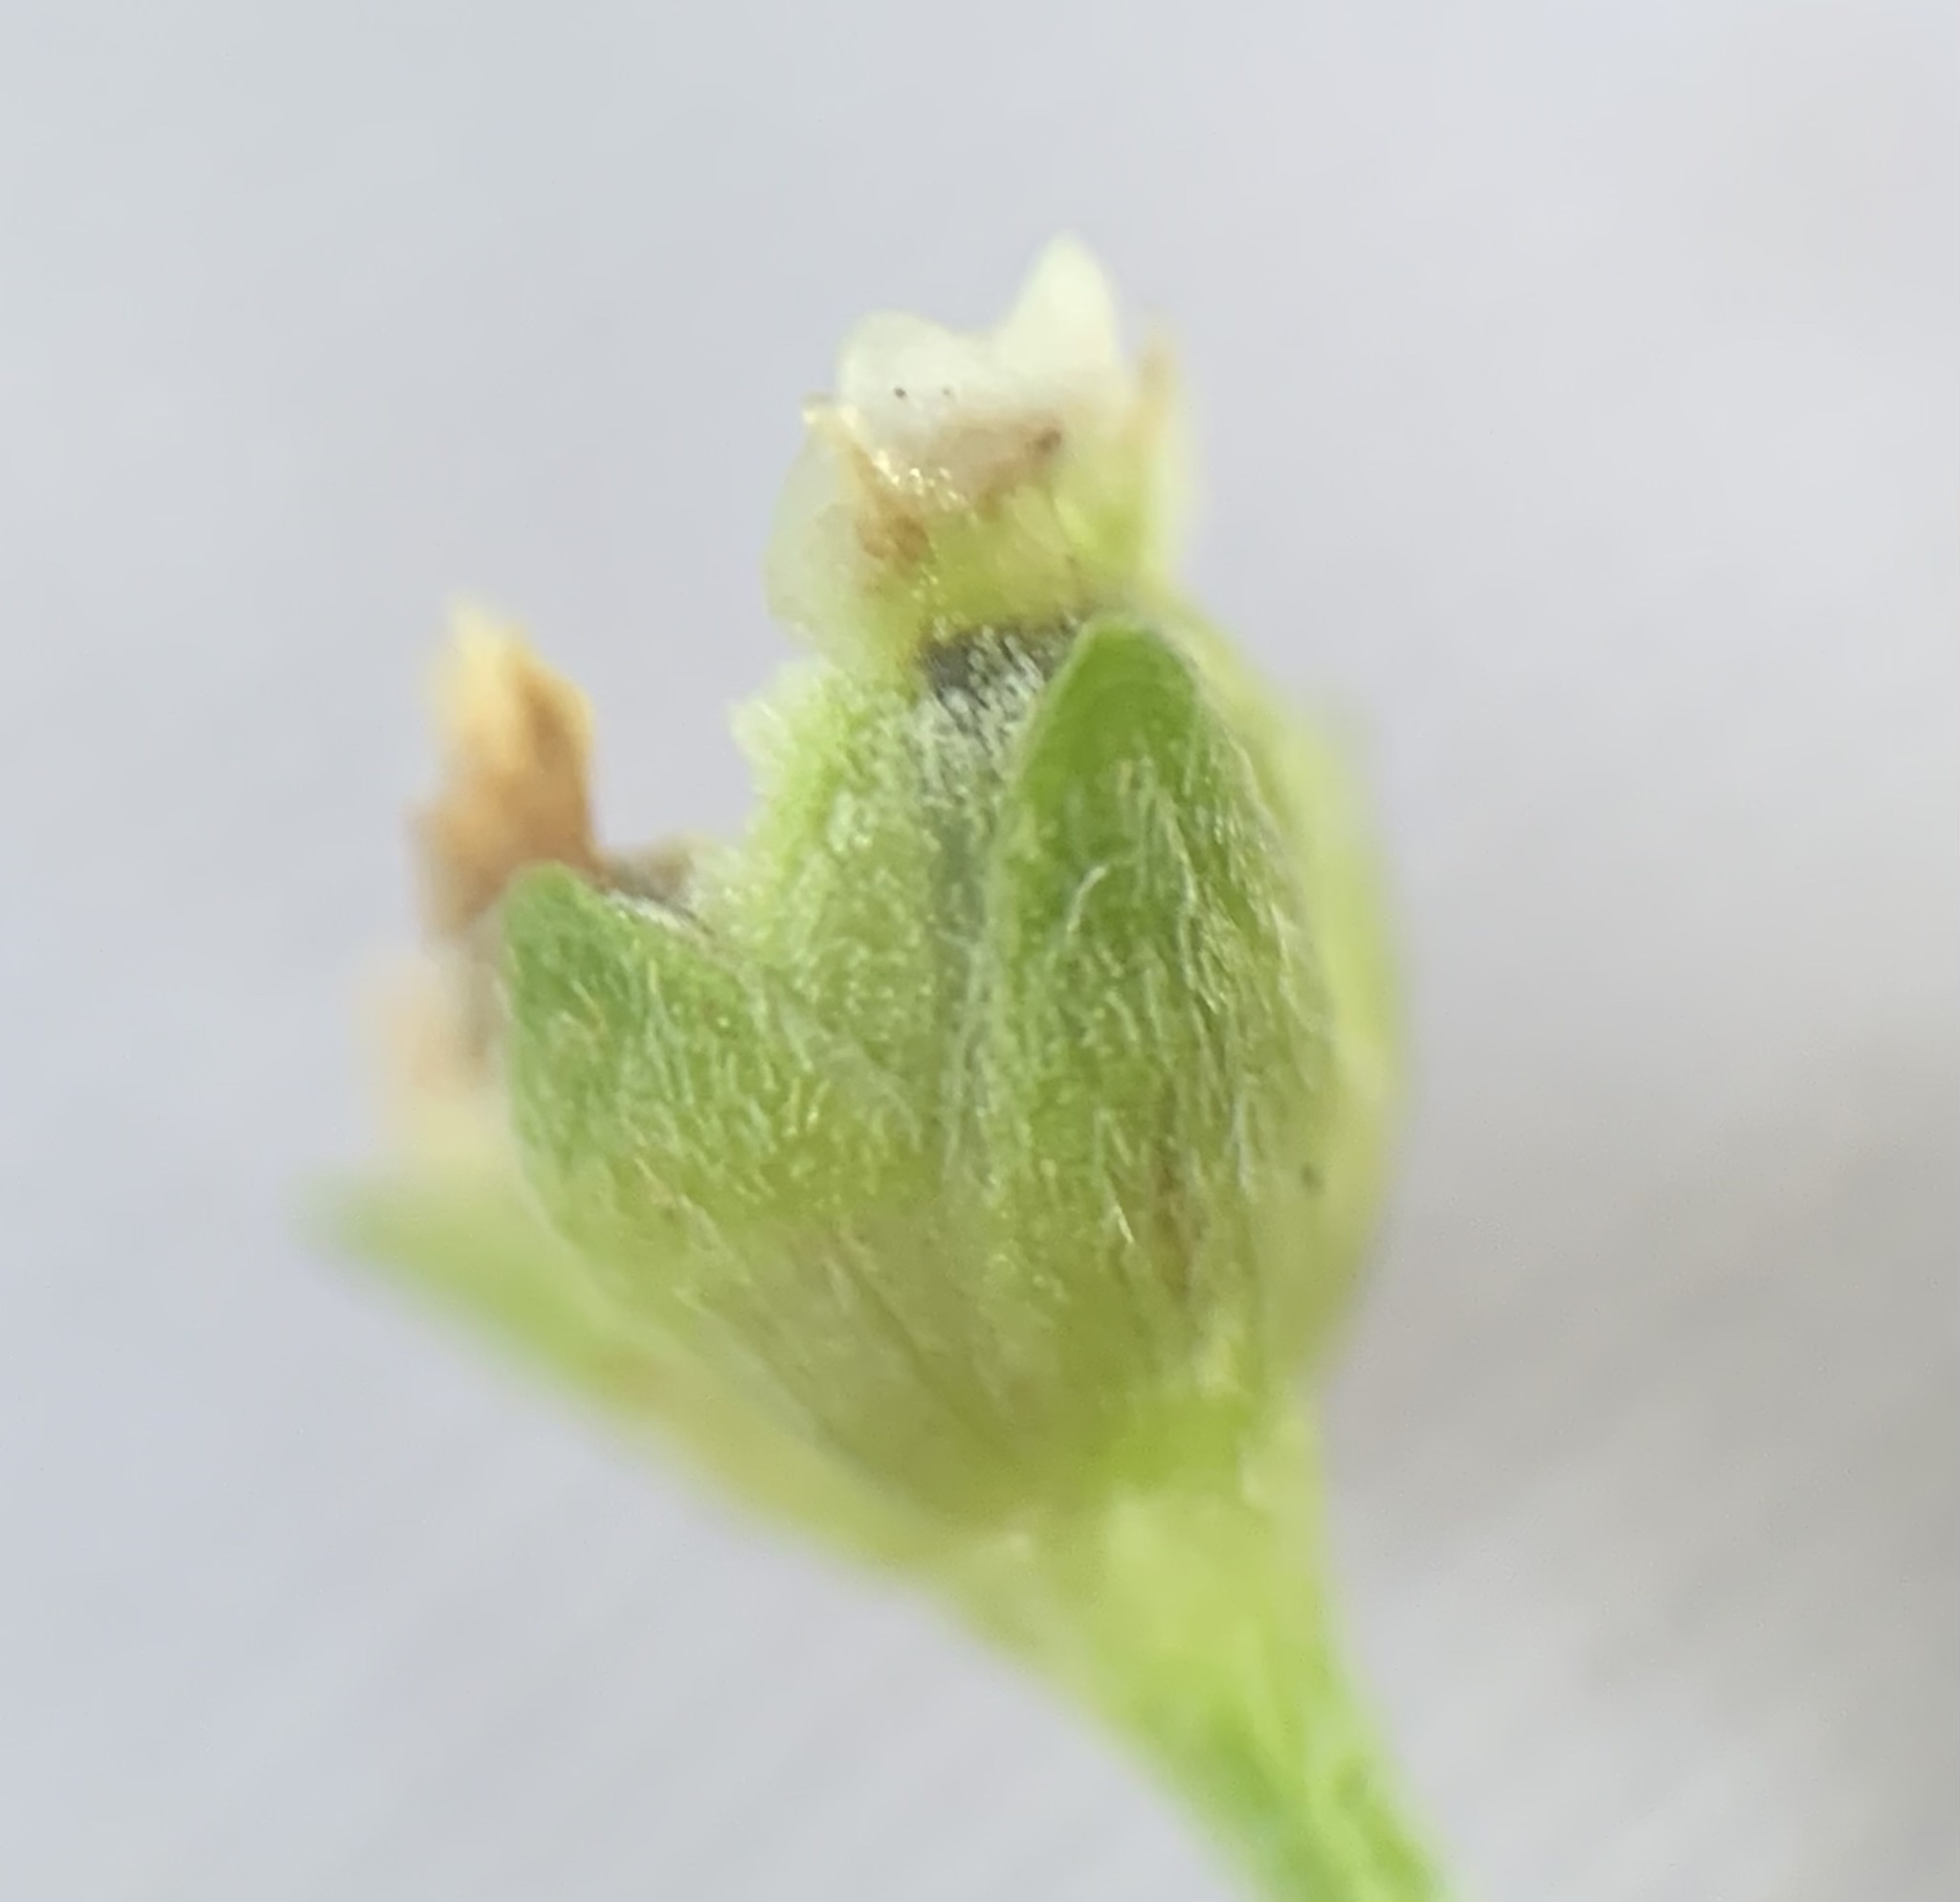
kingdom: Plantae
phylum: Tracheophyta
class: Magnoliopsida
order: Asterales
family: Asteraceae
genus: Parthenium
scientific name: Parthenium hysterophorus
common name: Santa maria feverfew
